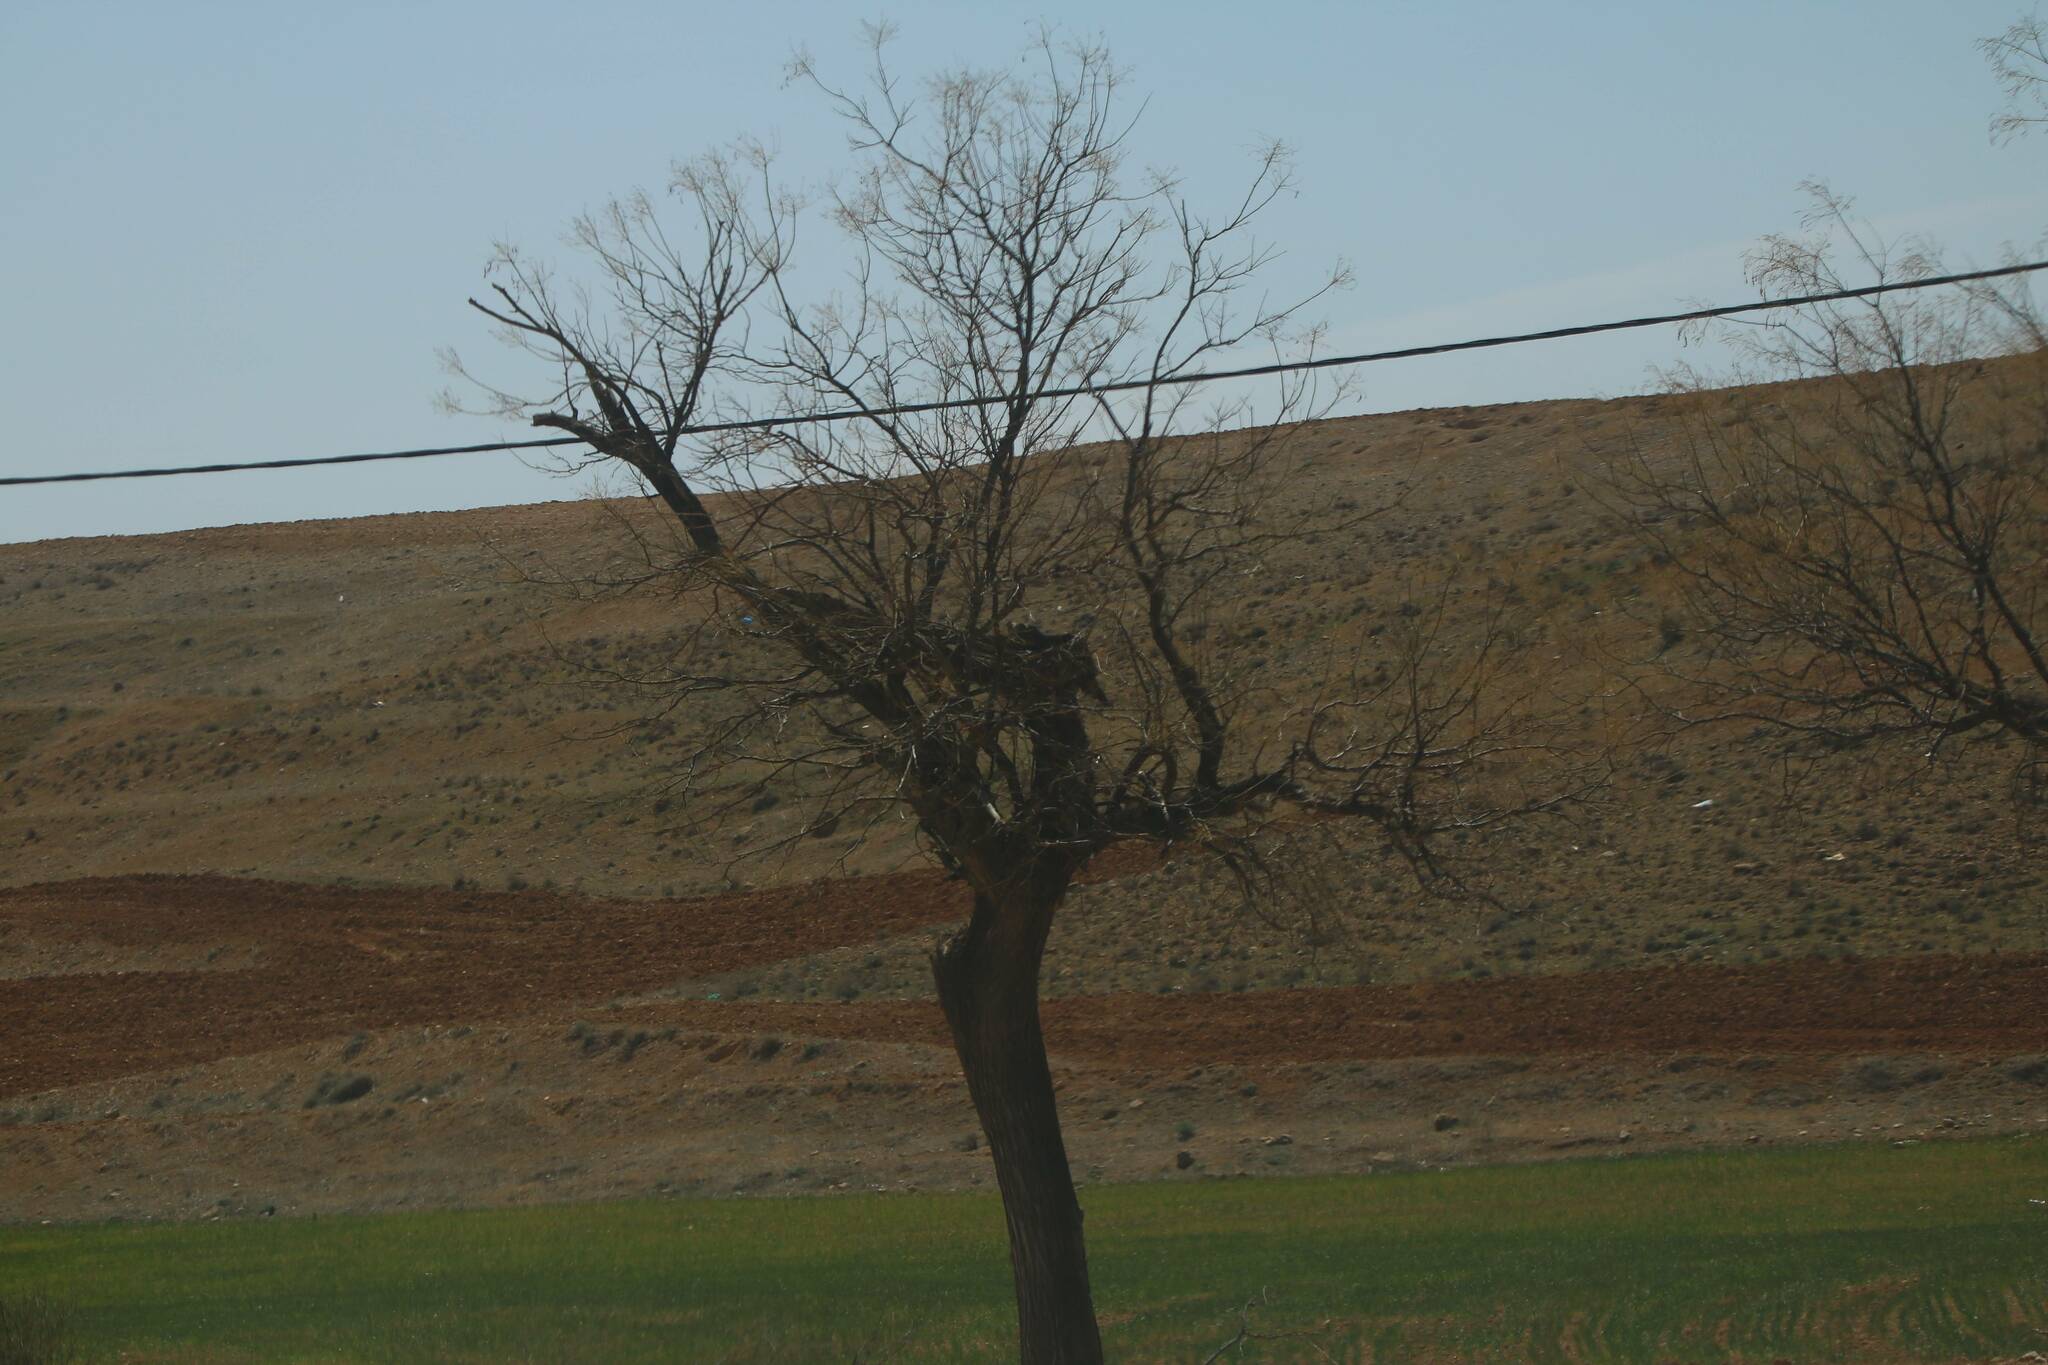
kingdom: Animalia
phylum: Chordata
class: Aves
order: Ciconiiformes
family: Ciconiidae
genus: Ciconia
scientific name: Ciconia ciconia
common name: White stork
